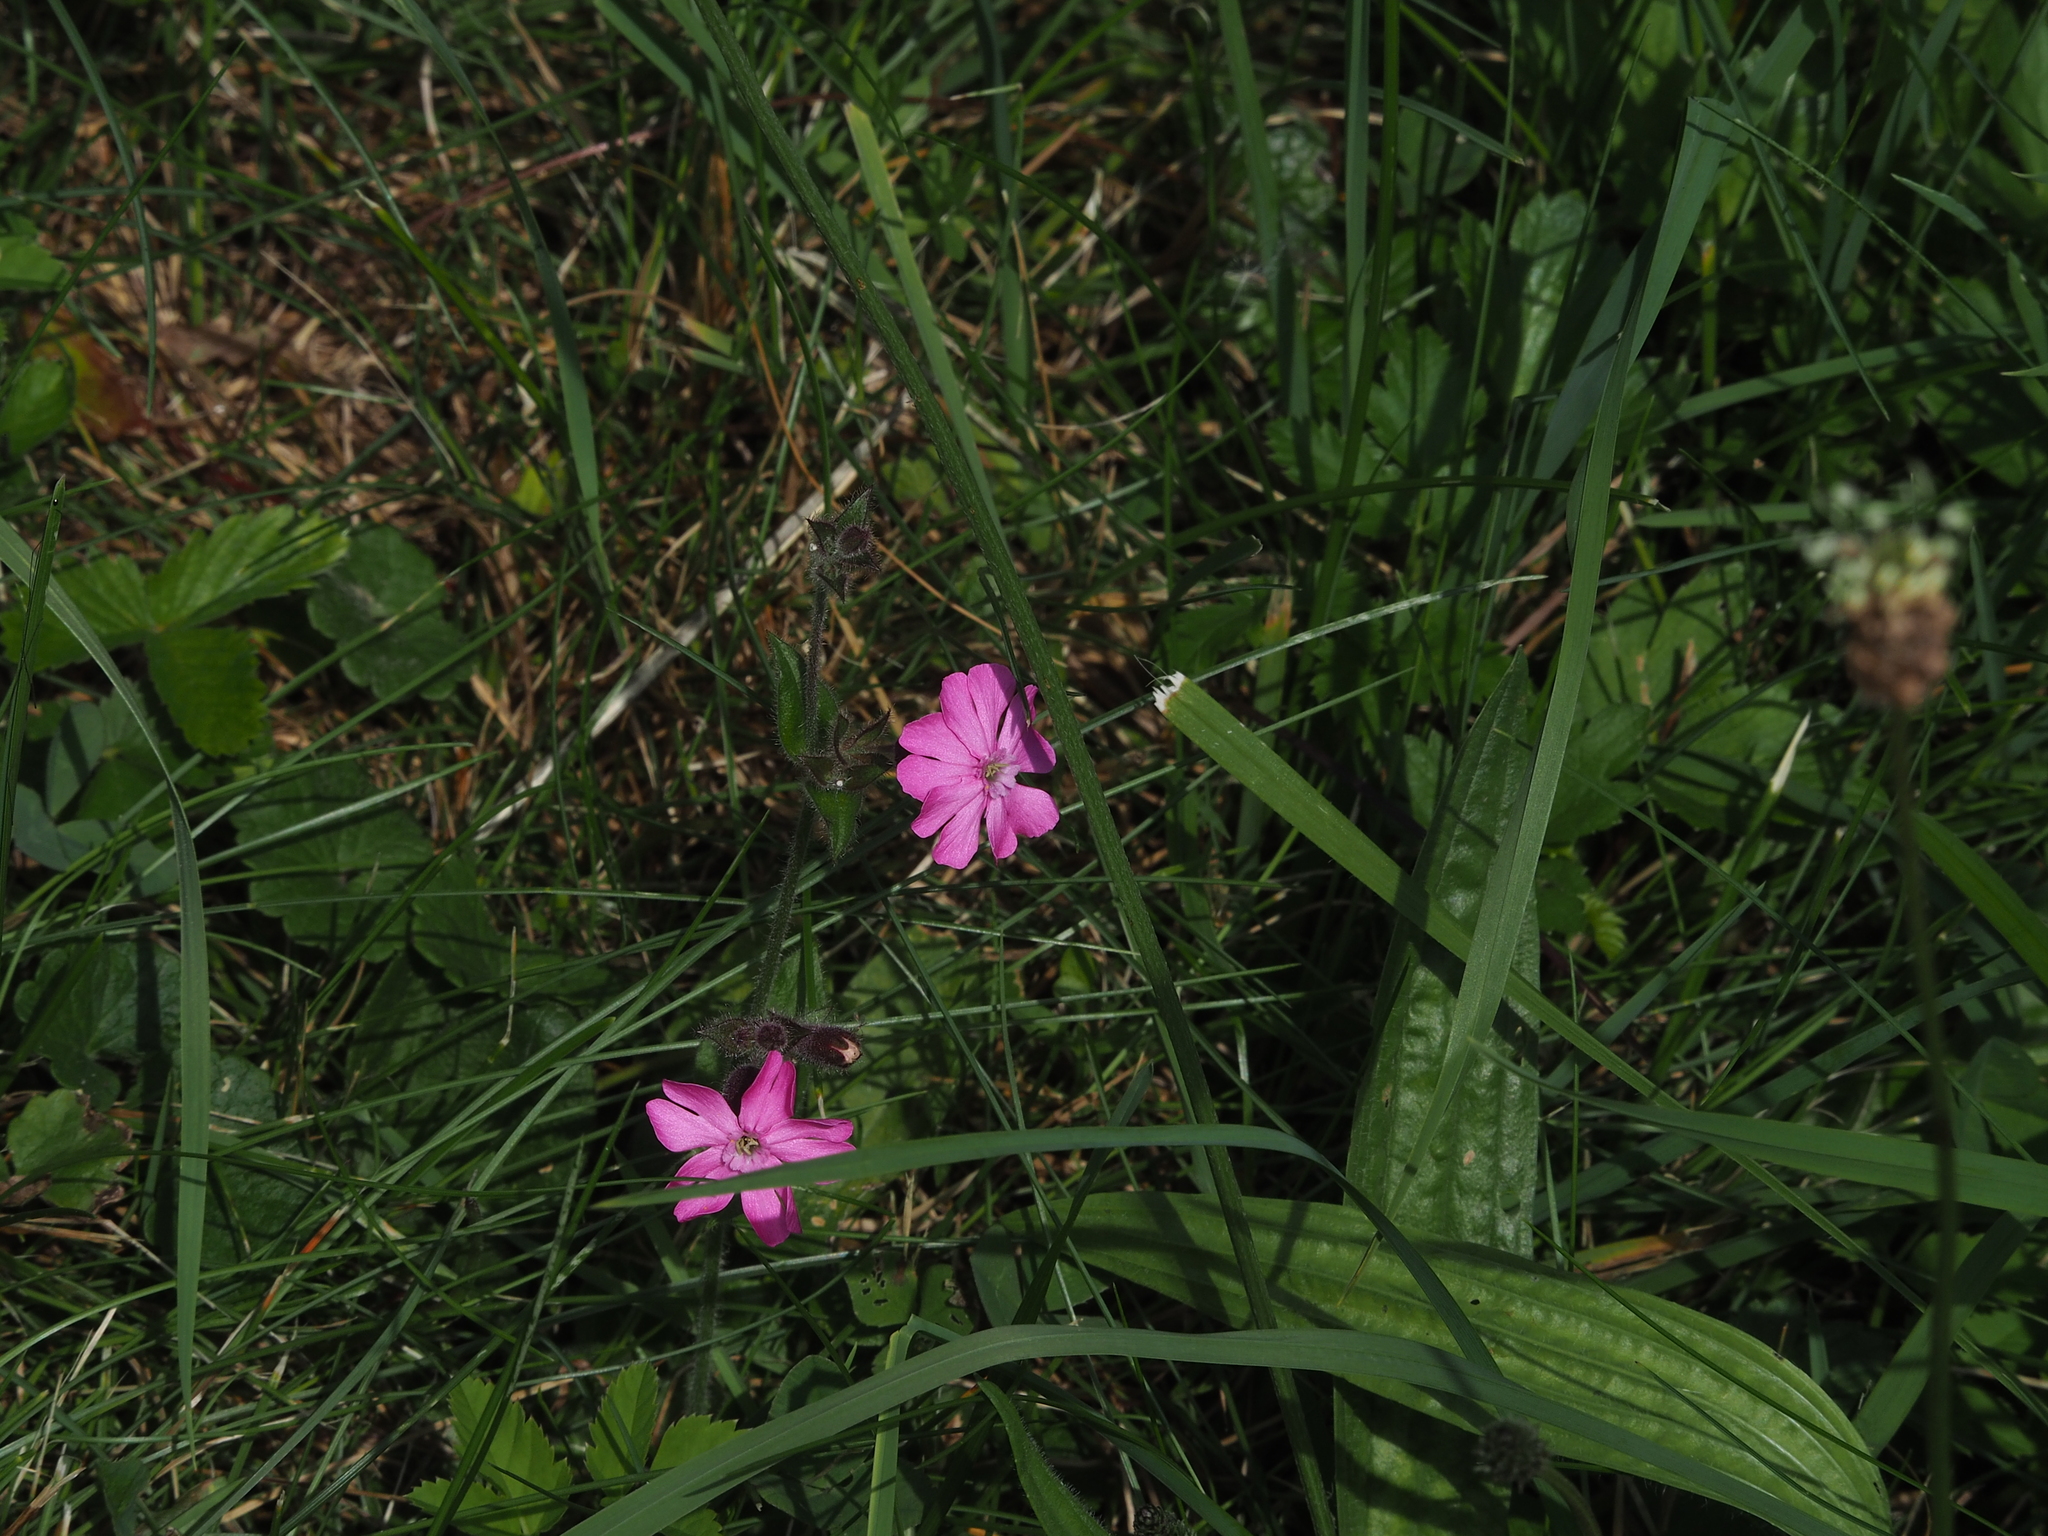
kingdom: Plantae
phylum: Tracheophyta
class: Magnoliopsida
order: Caryophyllales
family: Caryophyllaceae
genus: Silene
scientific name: Silene dioica
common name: Red campion
